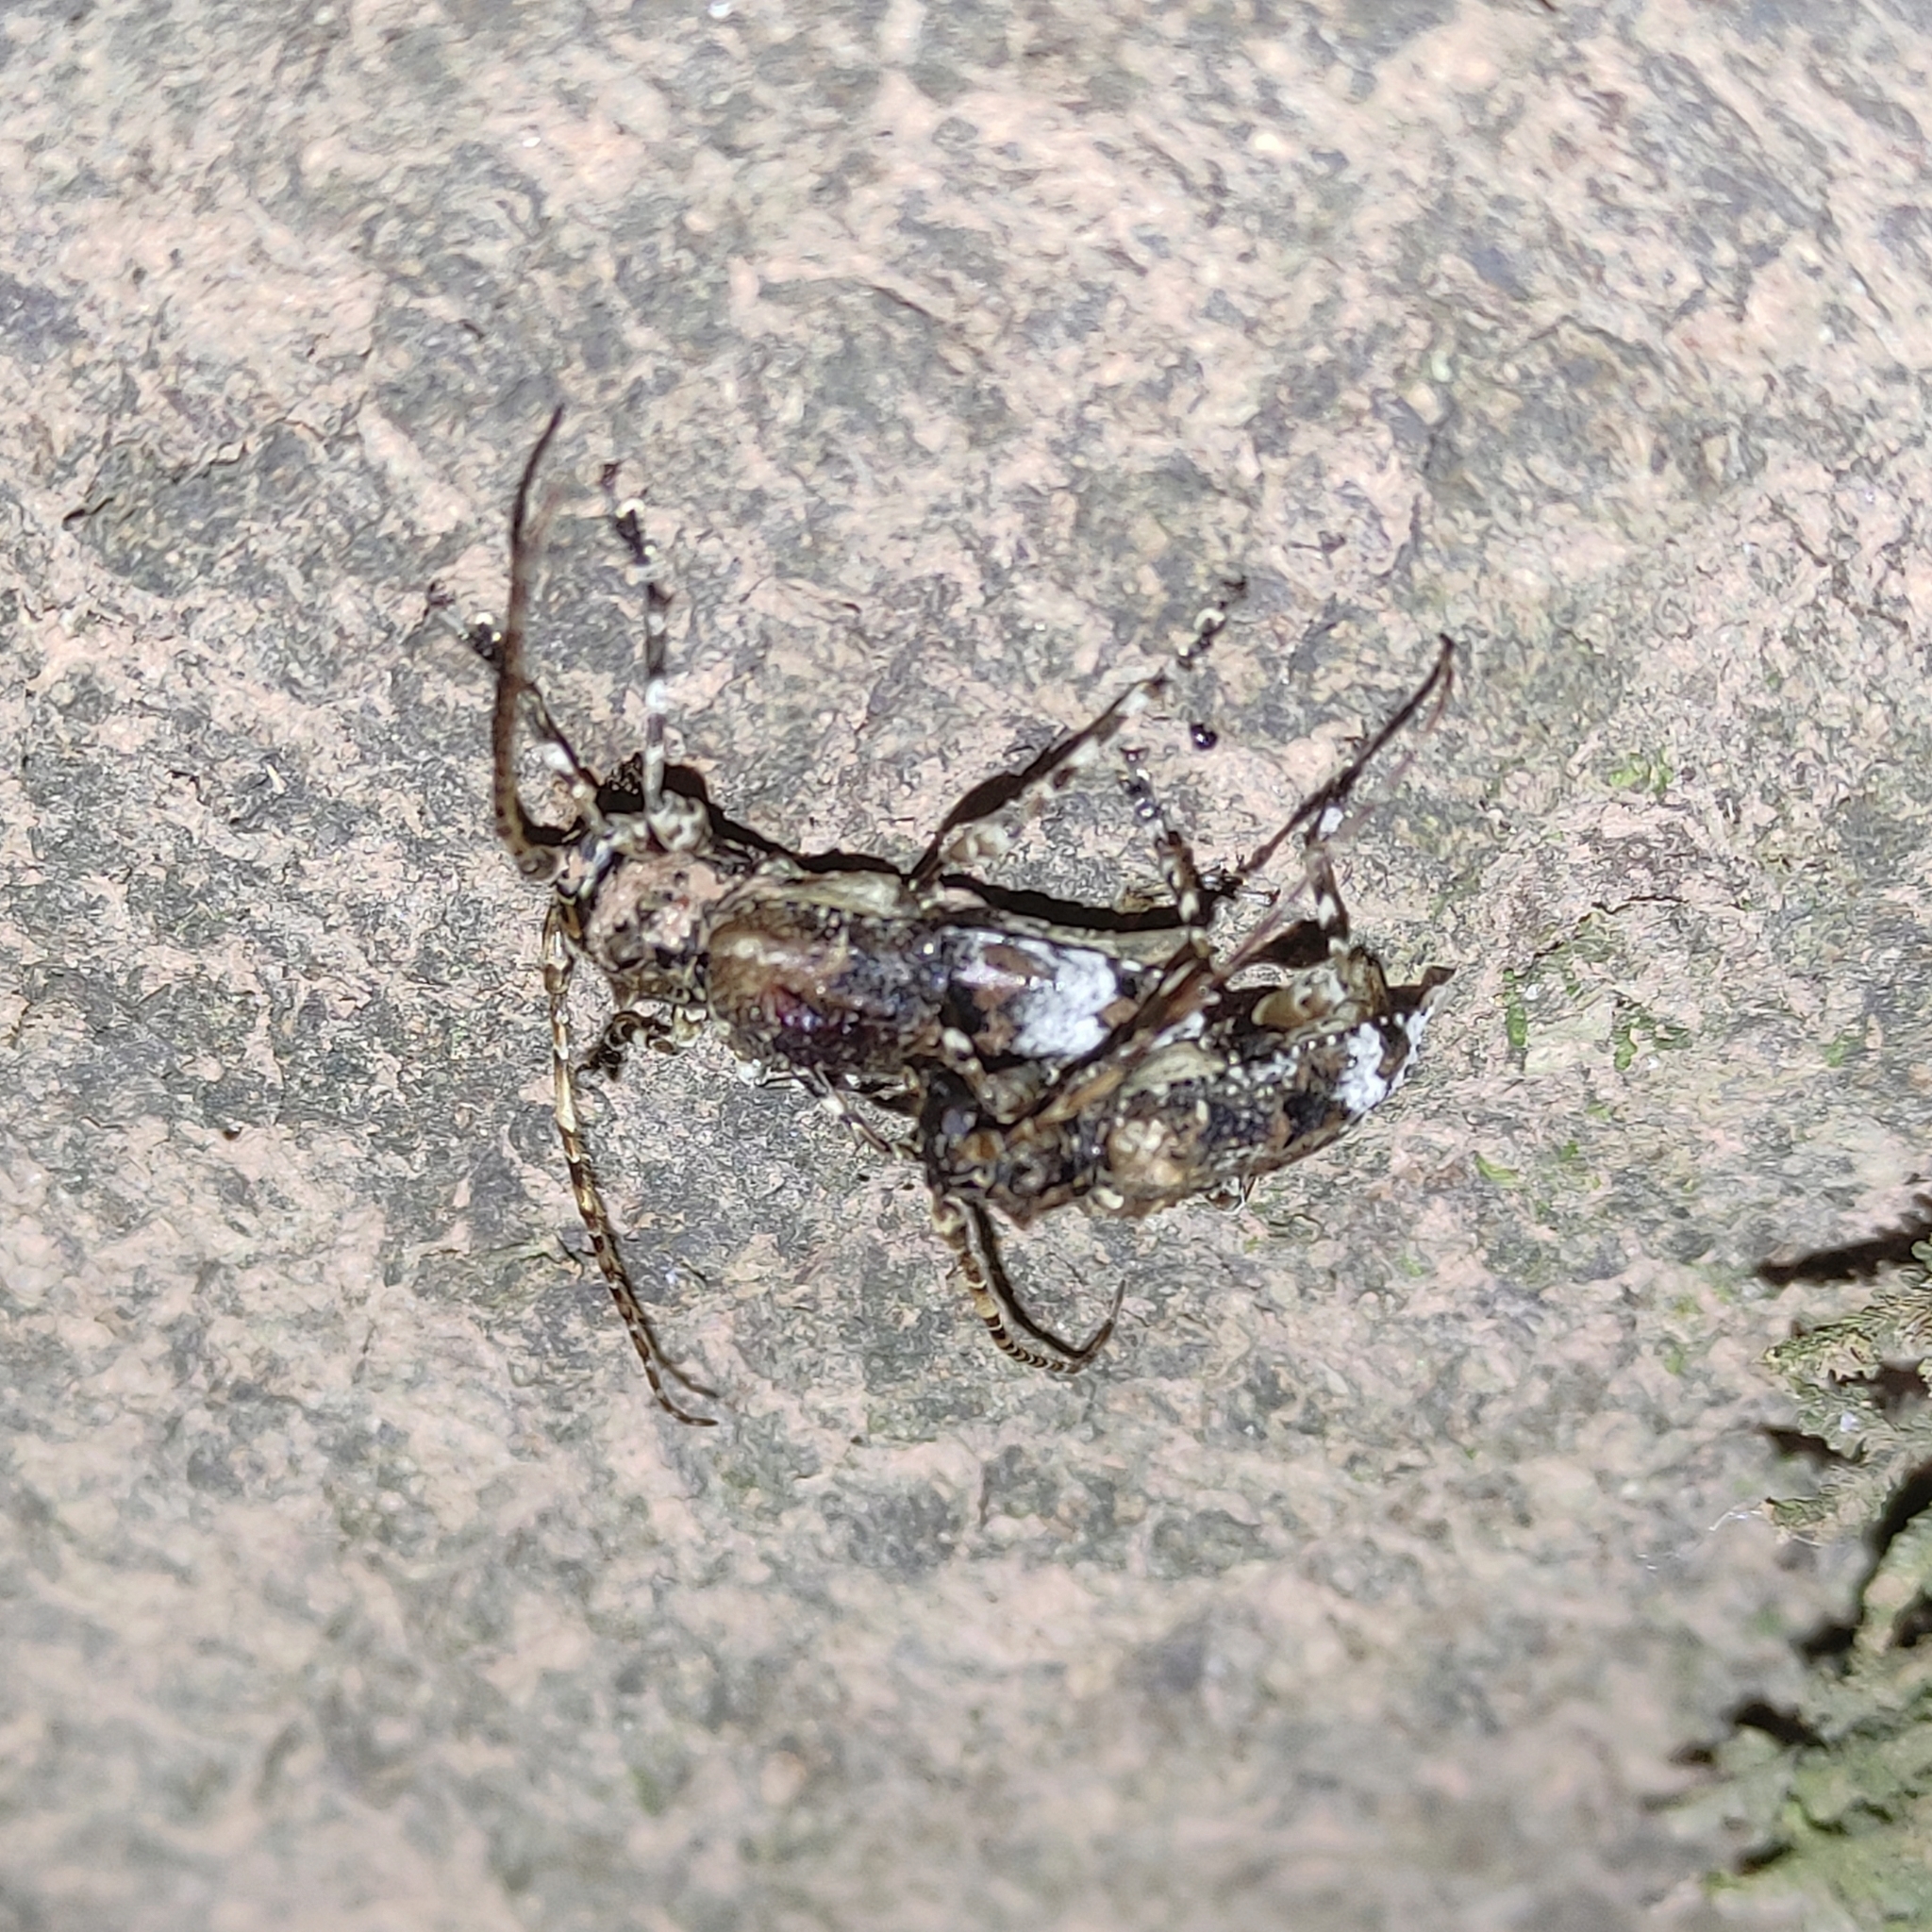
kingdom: Animalia
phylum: Arthropoda
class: Insecta
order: Coleoptera
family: Cerambycidae
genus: Aegomorphus
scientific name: Aegomorphus
